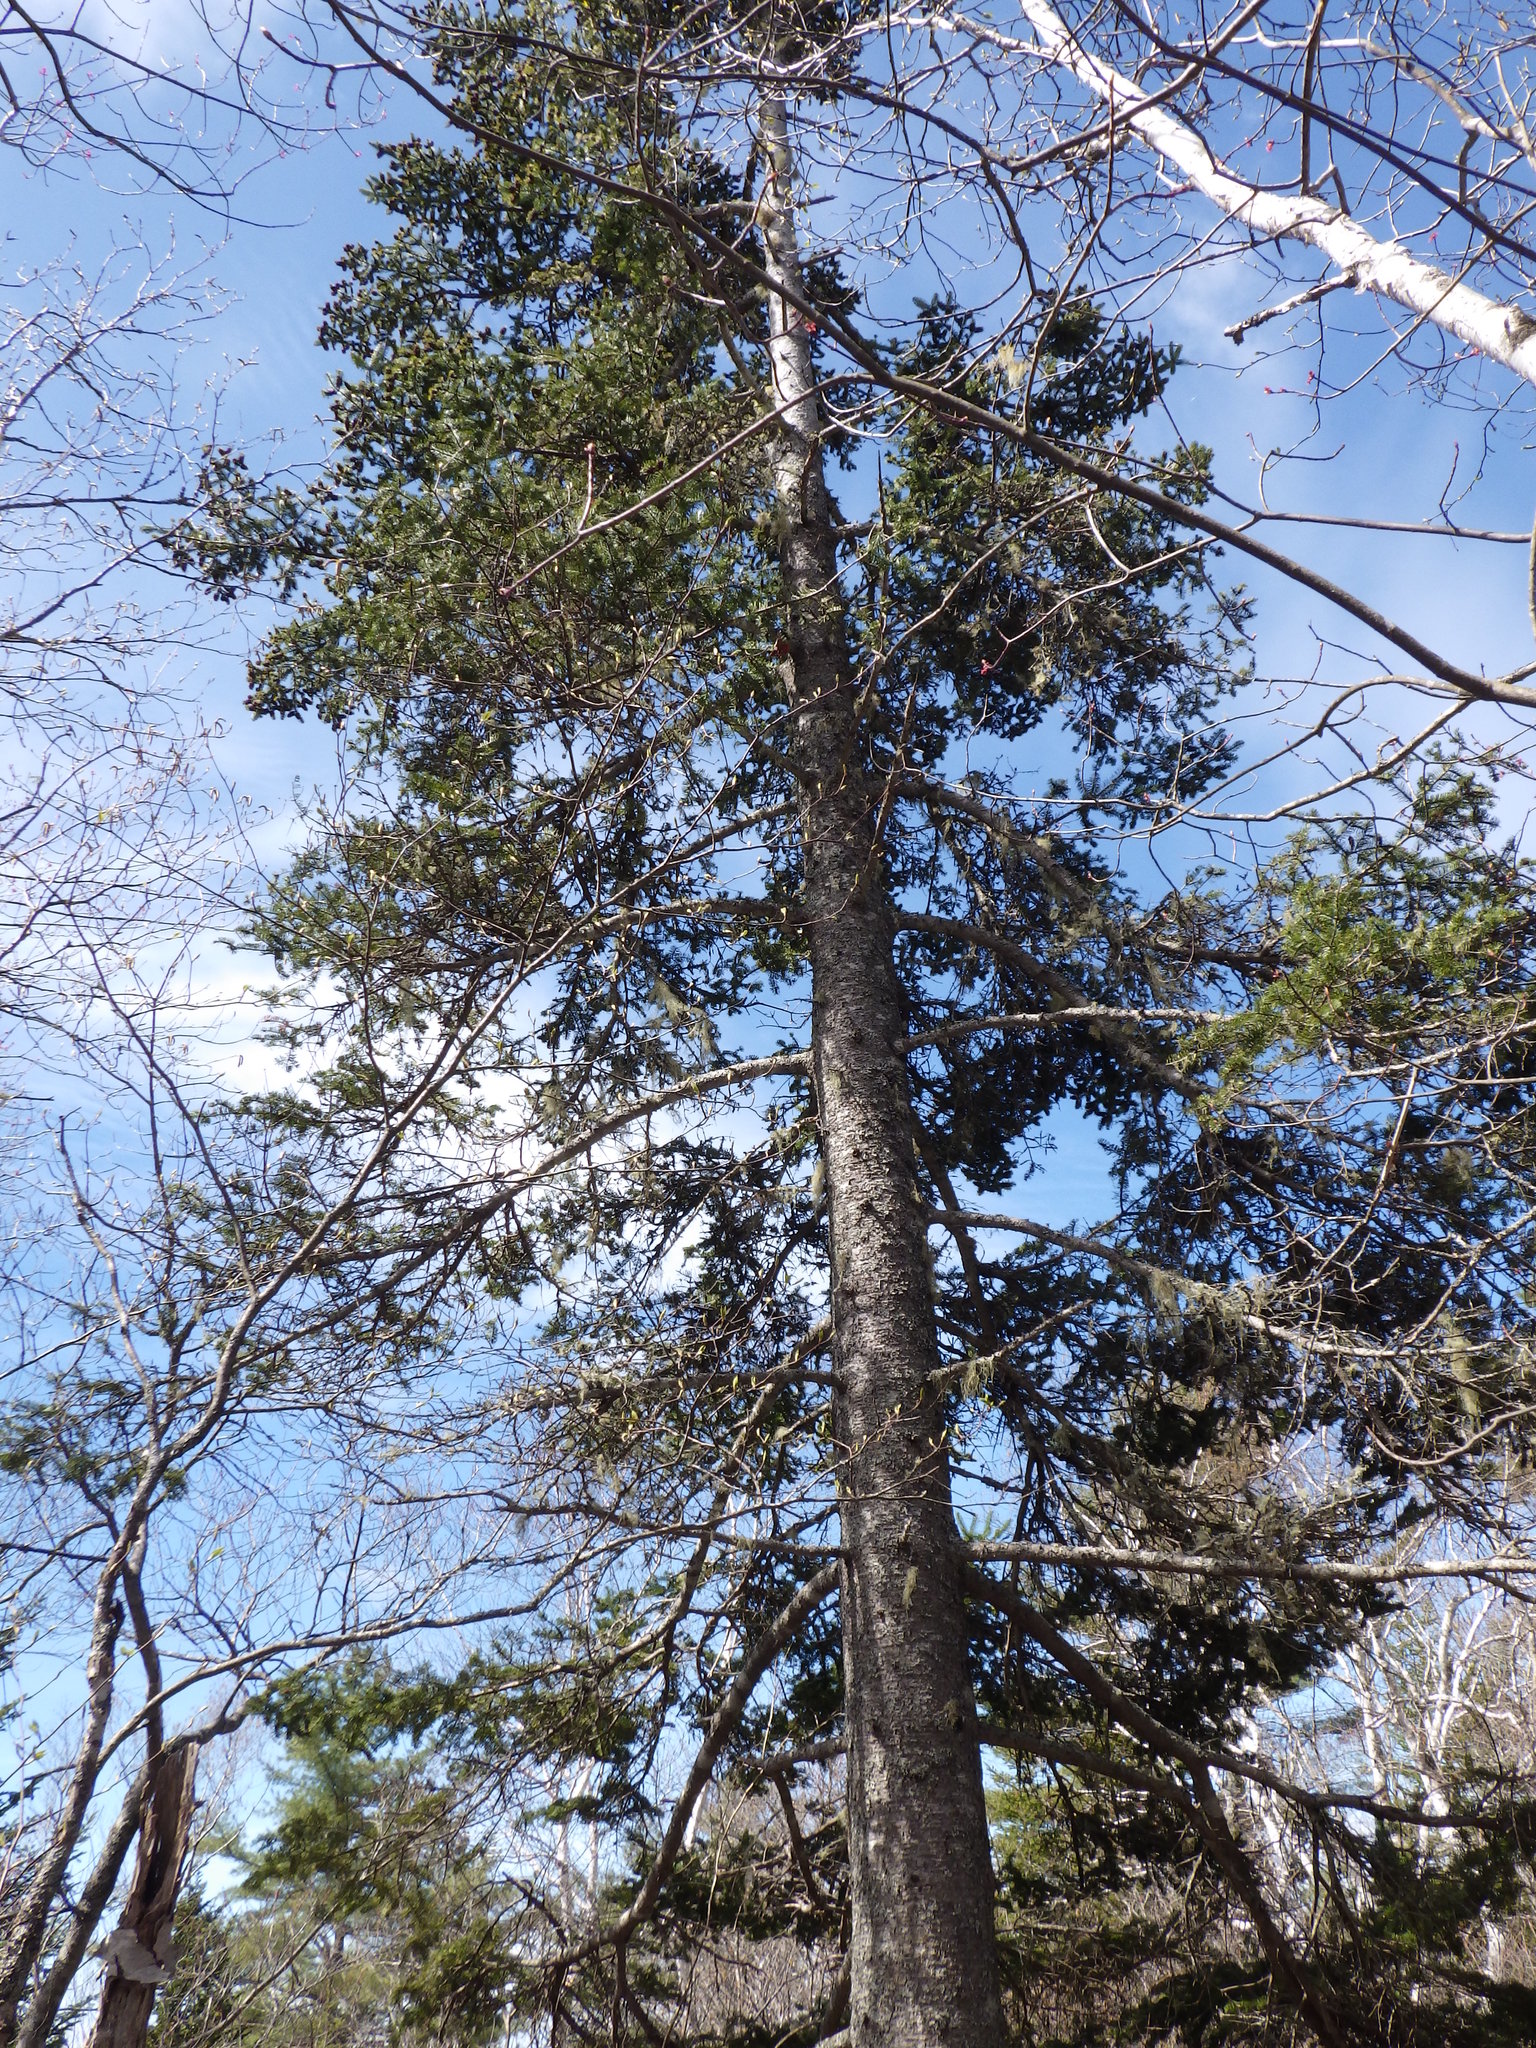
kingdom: Plantae
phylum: Tracheophyta
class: Pinopsida
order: Pinales
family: Pinaceae
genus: Abies
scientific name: Abies balsamea
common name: Balsam fir
